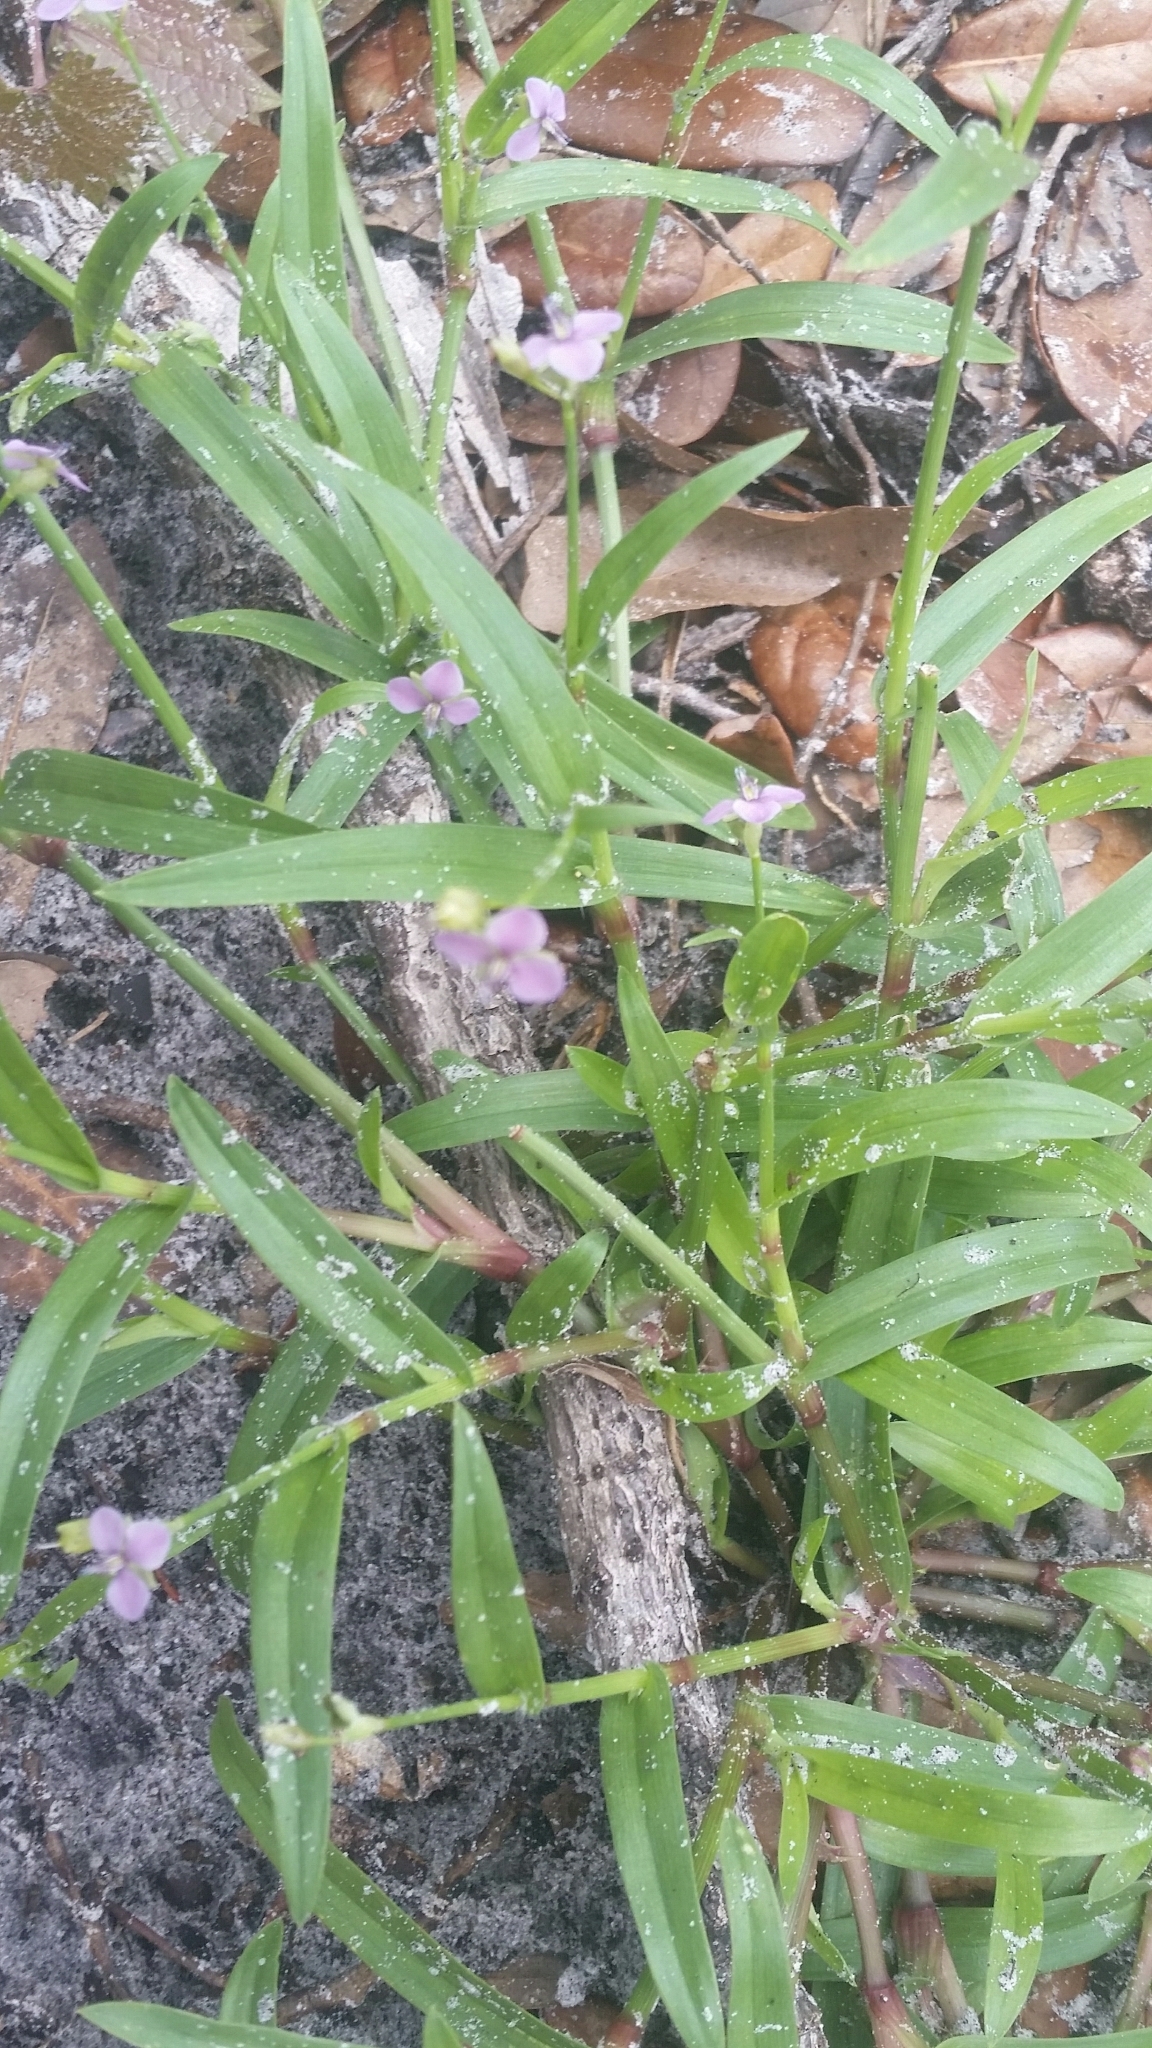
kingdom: Plantae
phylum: Tracheophyta
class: Liliopsida
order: Commelinales
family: Commelinaceae
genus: Murdannia
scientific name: Murdannia nudiflora
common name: Nakedstem dewflower
